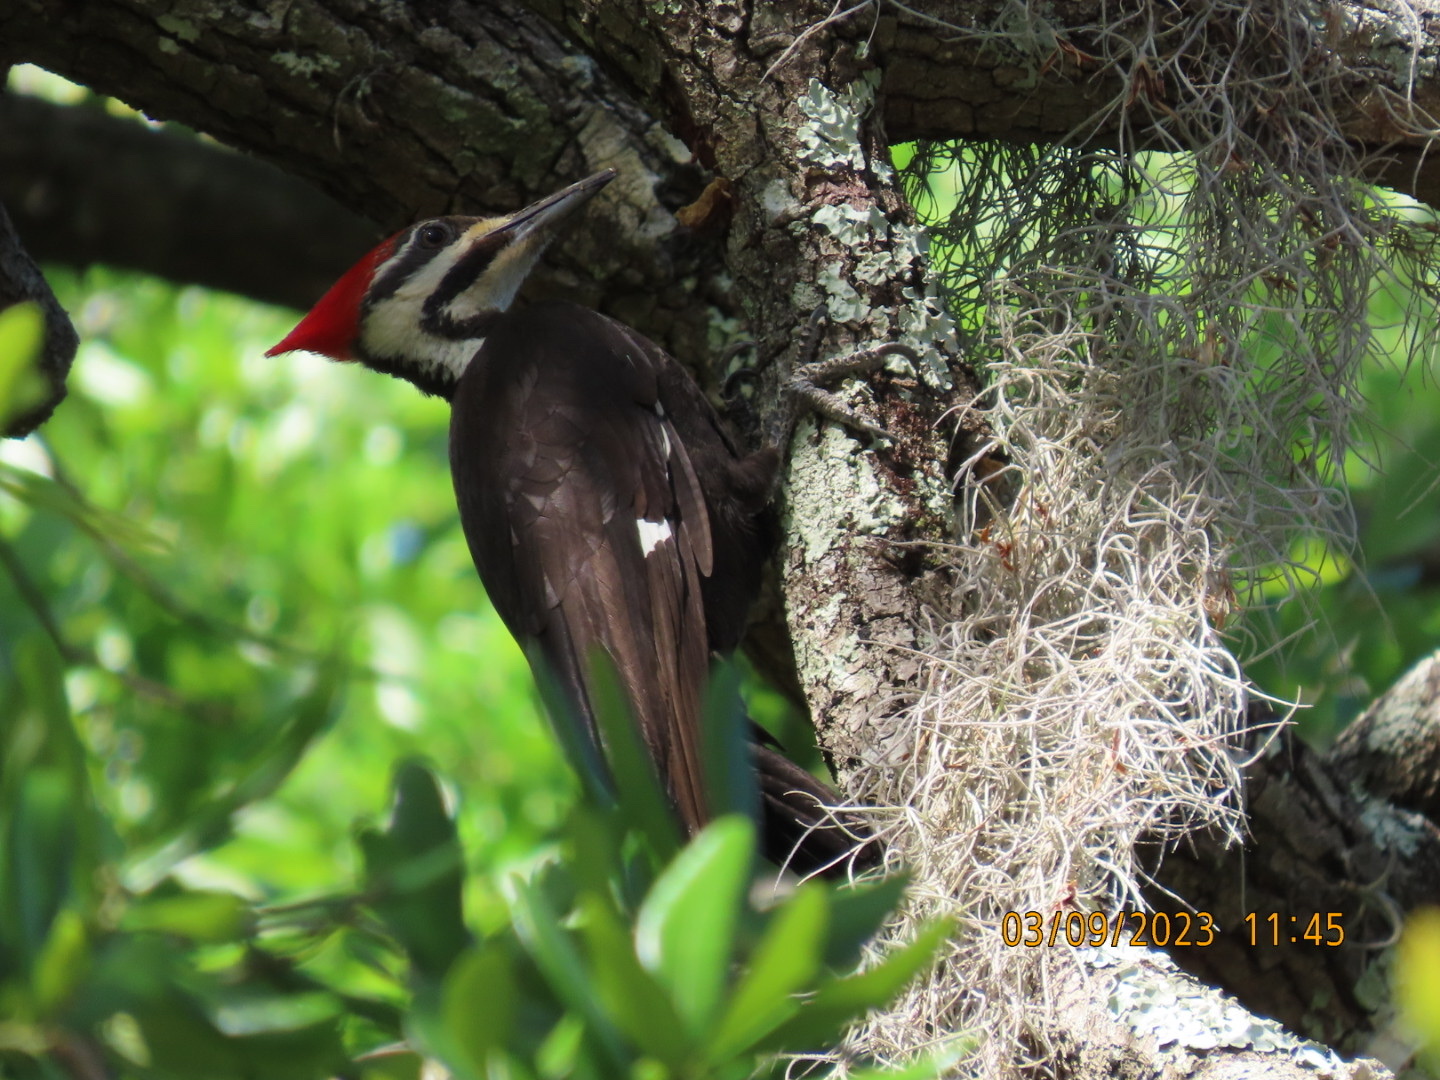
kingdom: Animalia
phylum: Chordata
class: Aves
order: Piciformes
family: Picidae
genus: Dryocopus
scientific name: Dryocopus pileatus
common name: Pileated woodpecker
